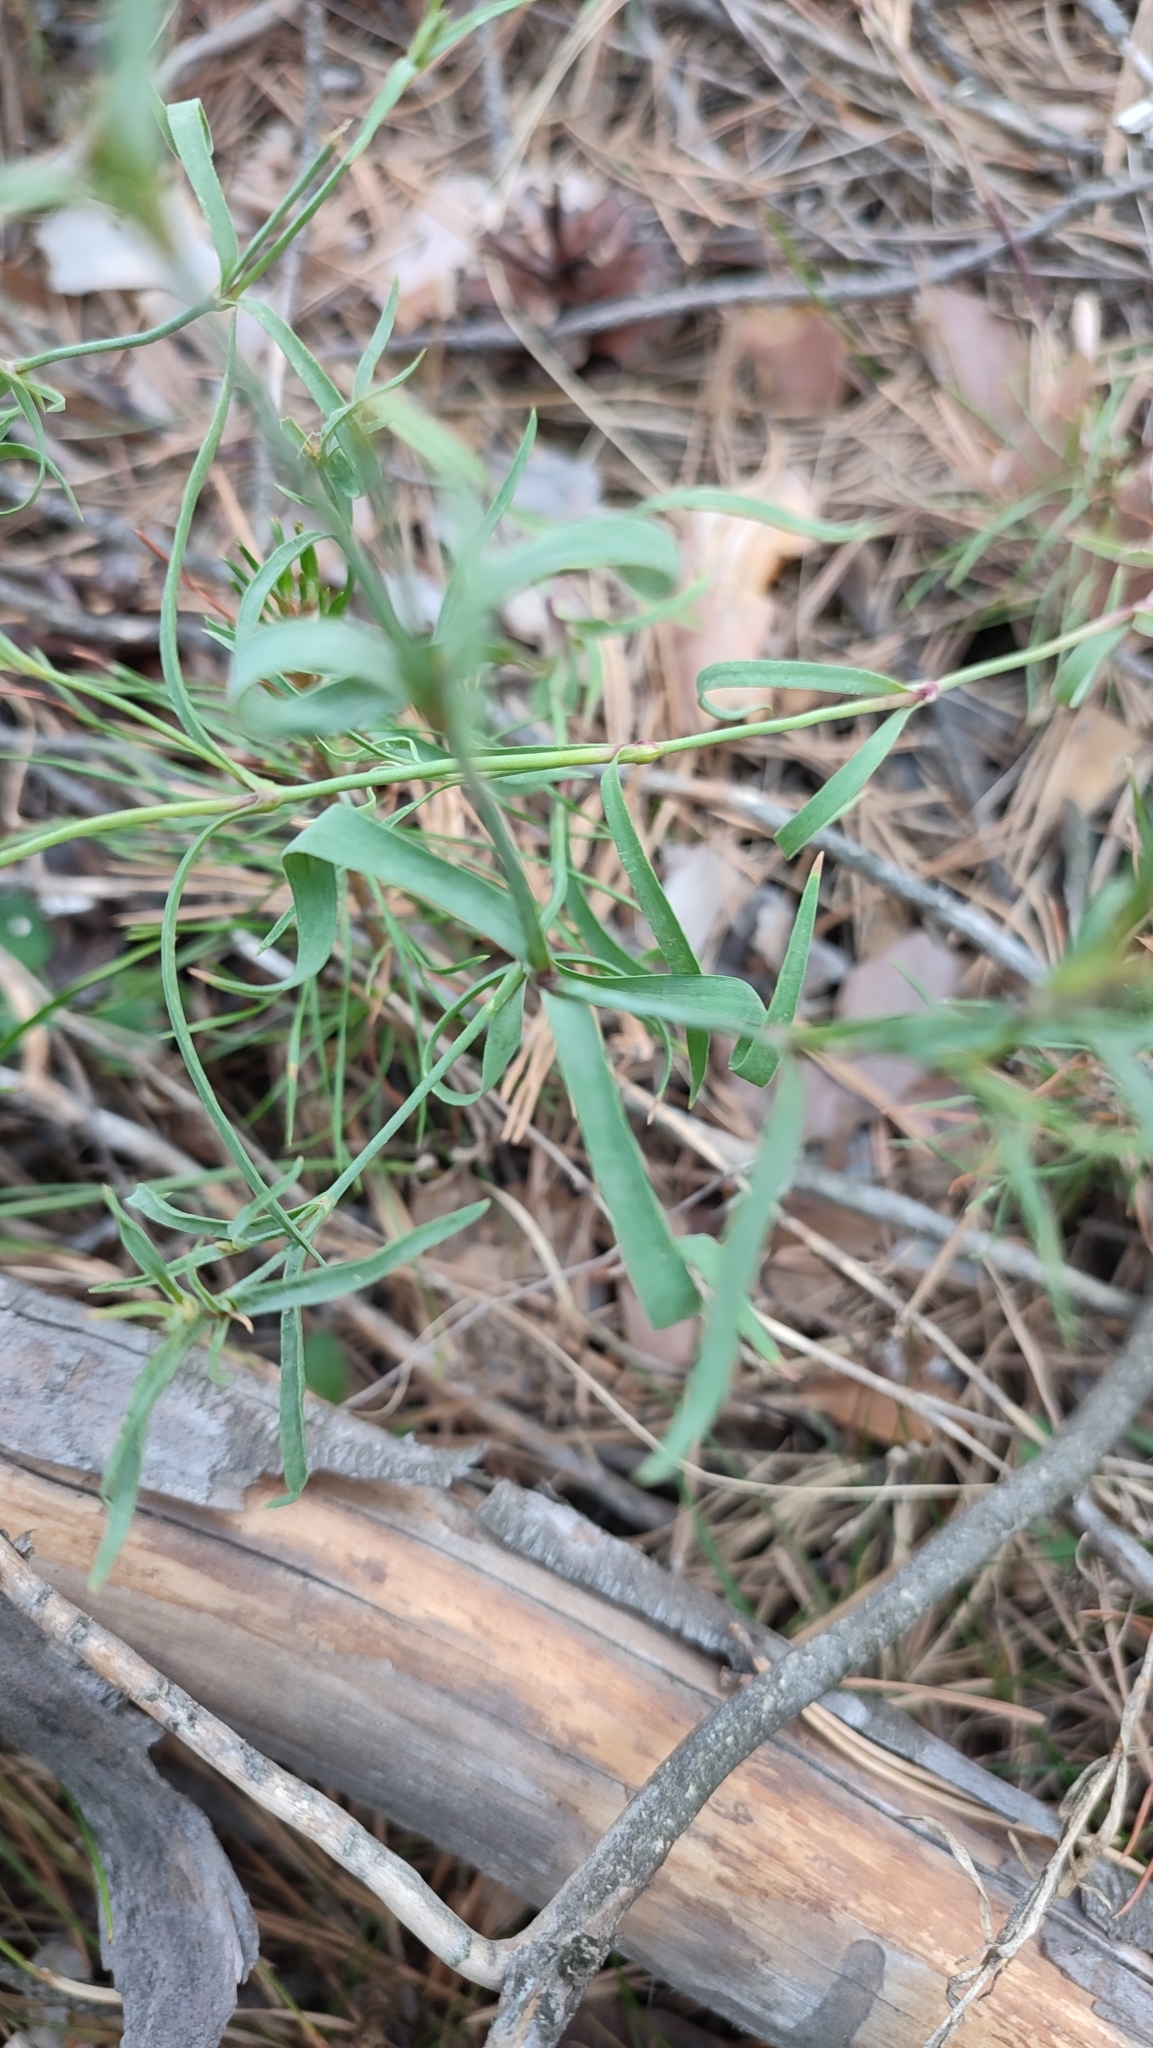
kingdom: Plantae
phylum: Tracheophyta
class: Magnoliopsida
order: Caryophyllales
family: Caryophyllaceae
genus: Dianthus
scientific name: Dianthus chinensis
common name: Rainbow pink
